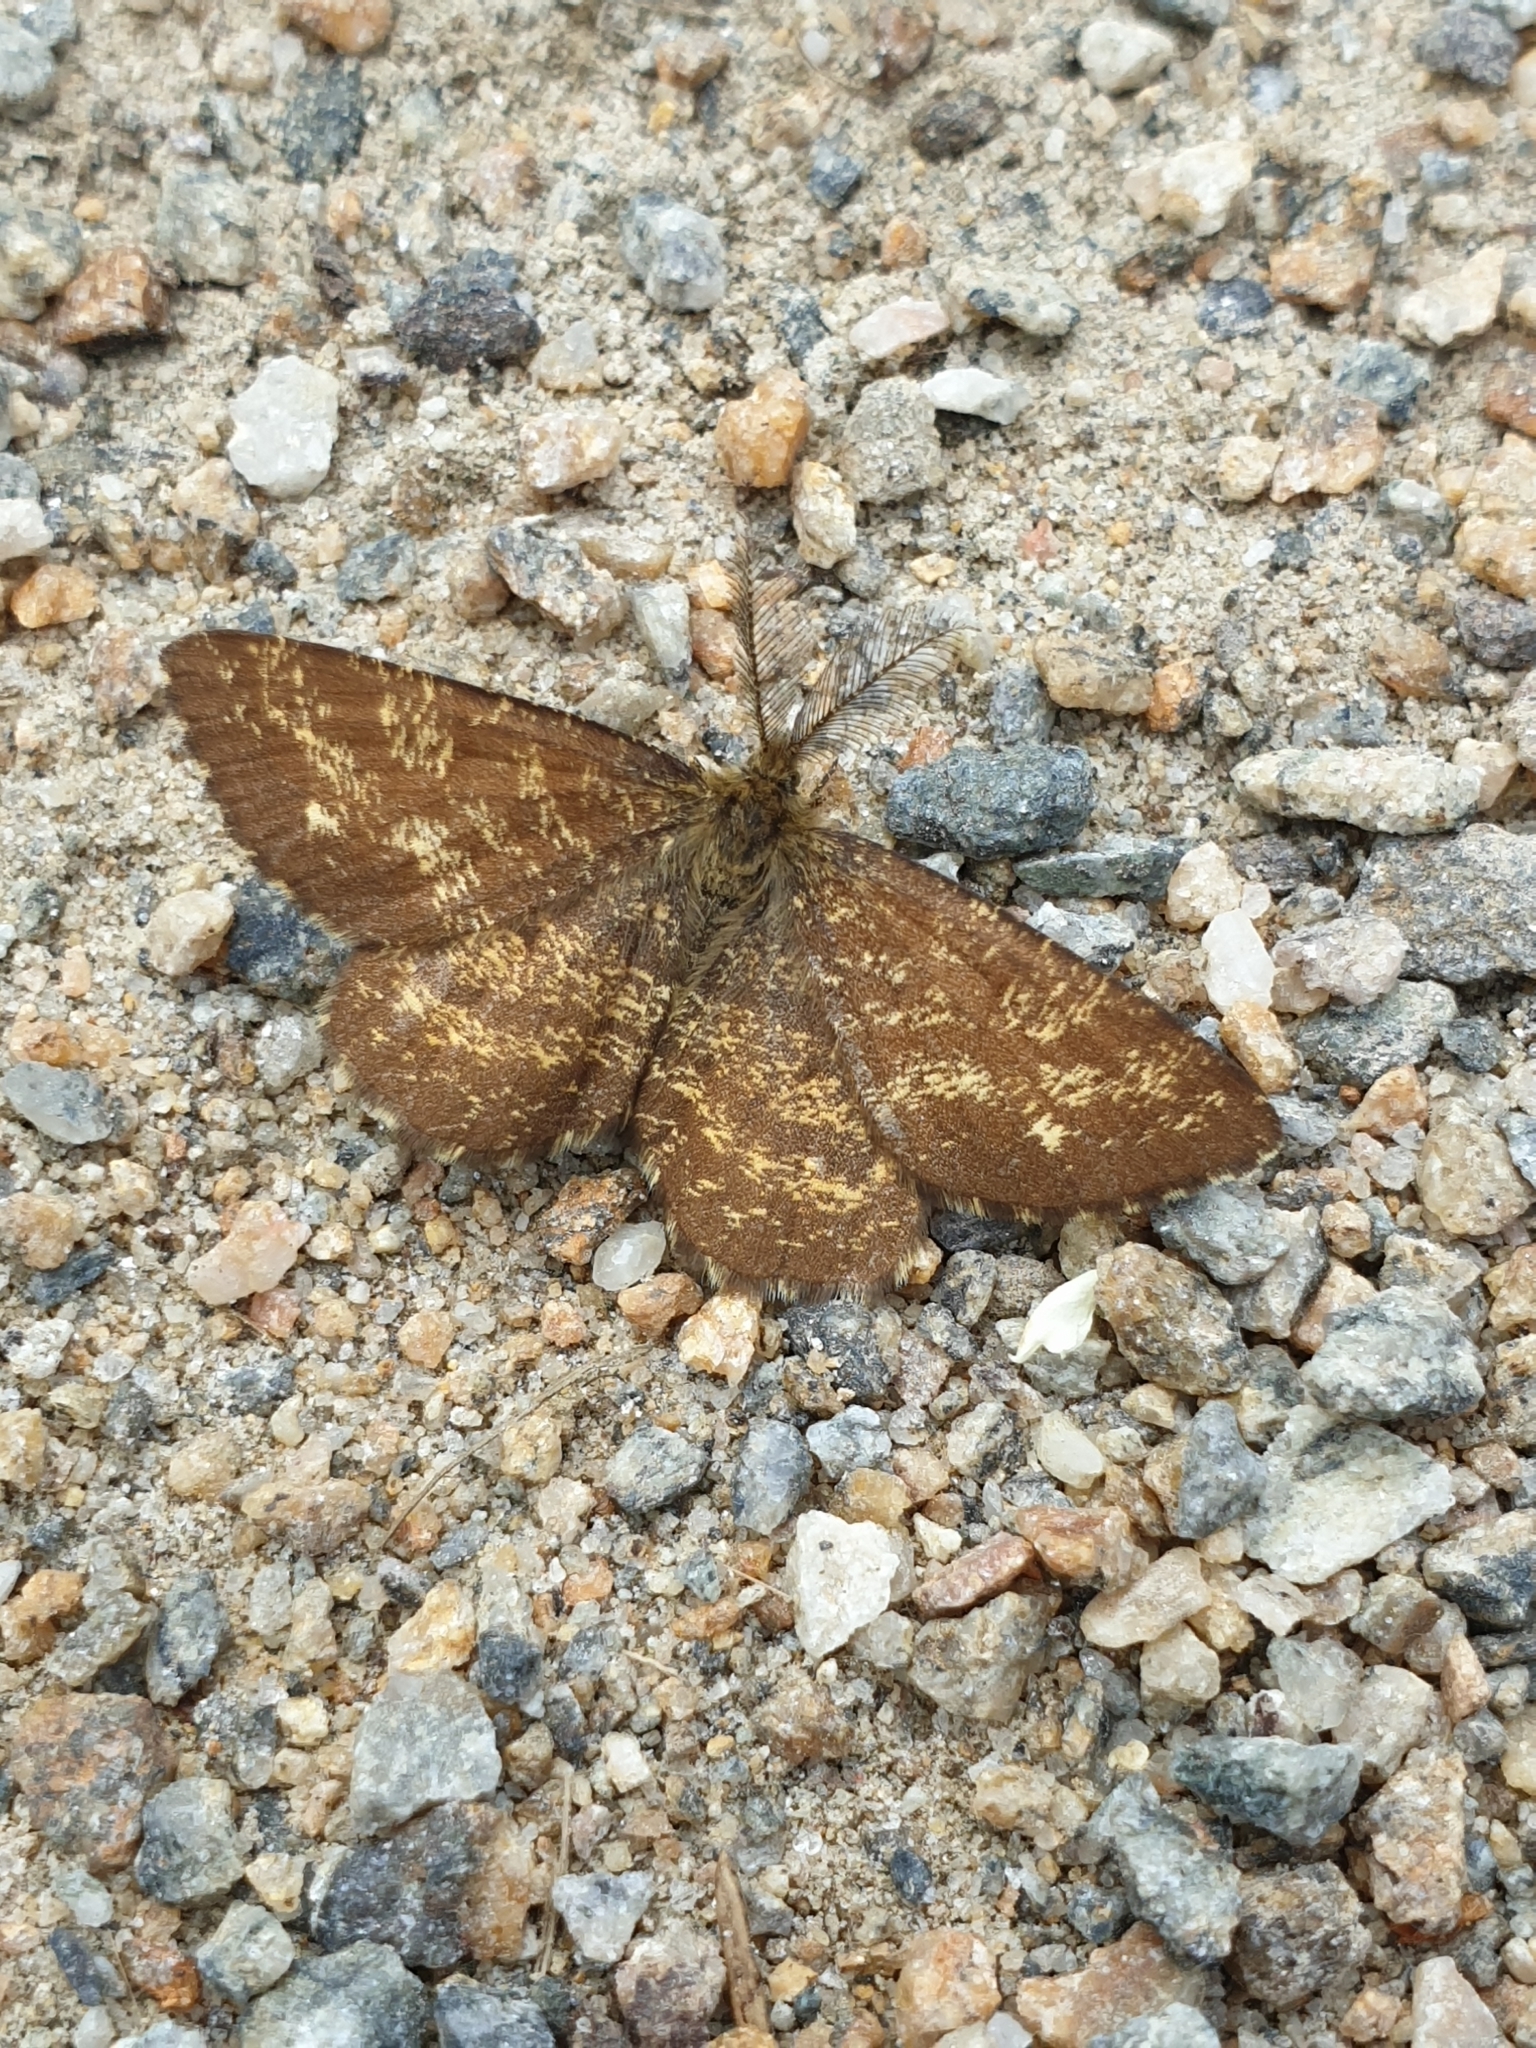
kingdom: Animalia
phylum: Arthropoda
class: Insecta
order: Lepidoptera
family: Geometridae
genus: Ematurga
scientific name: Ematurga atomaria
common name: Common heath
